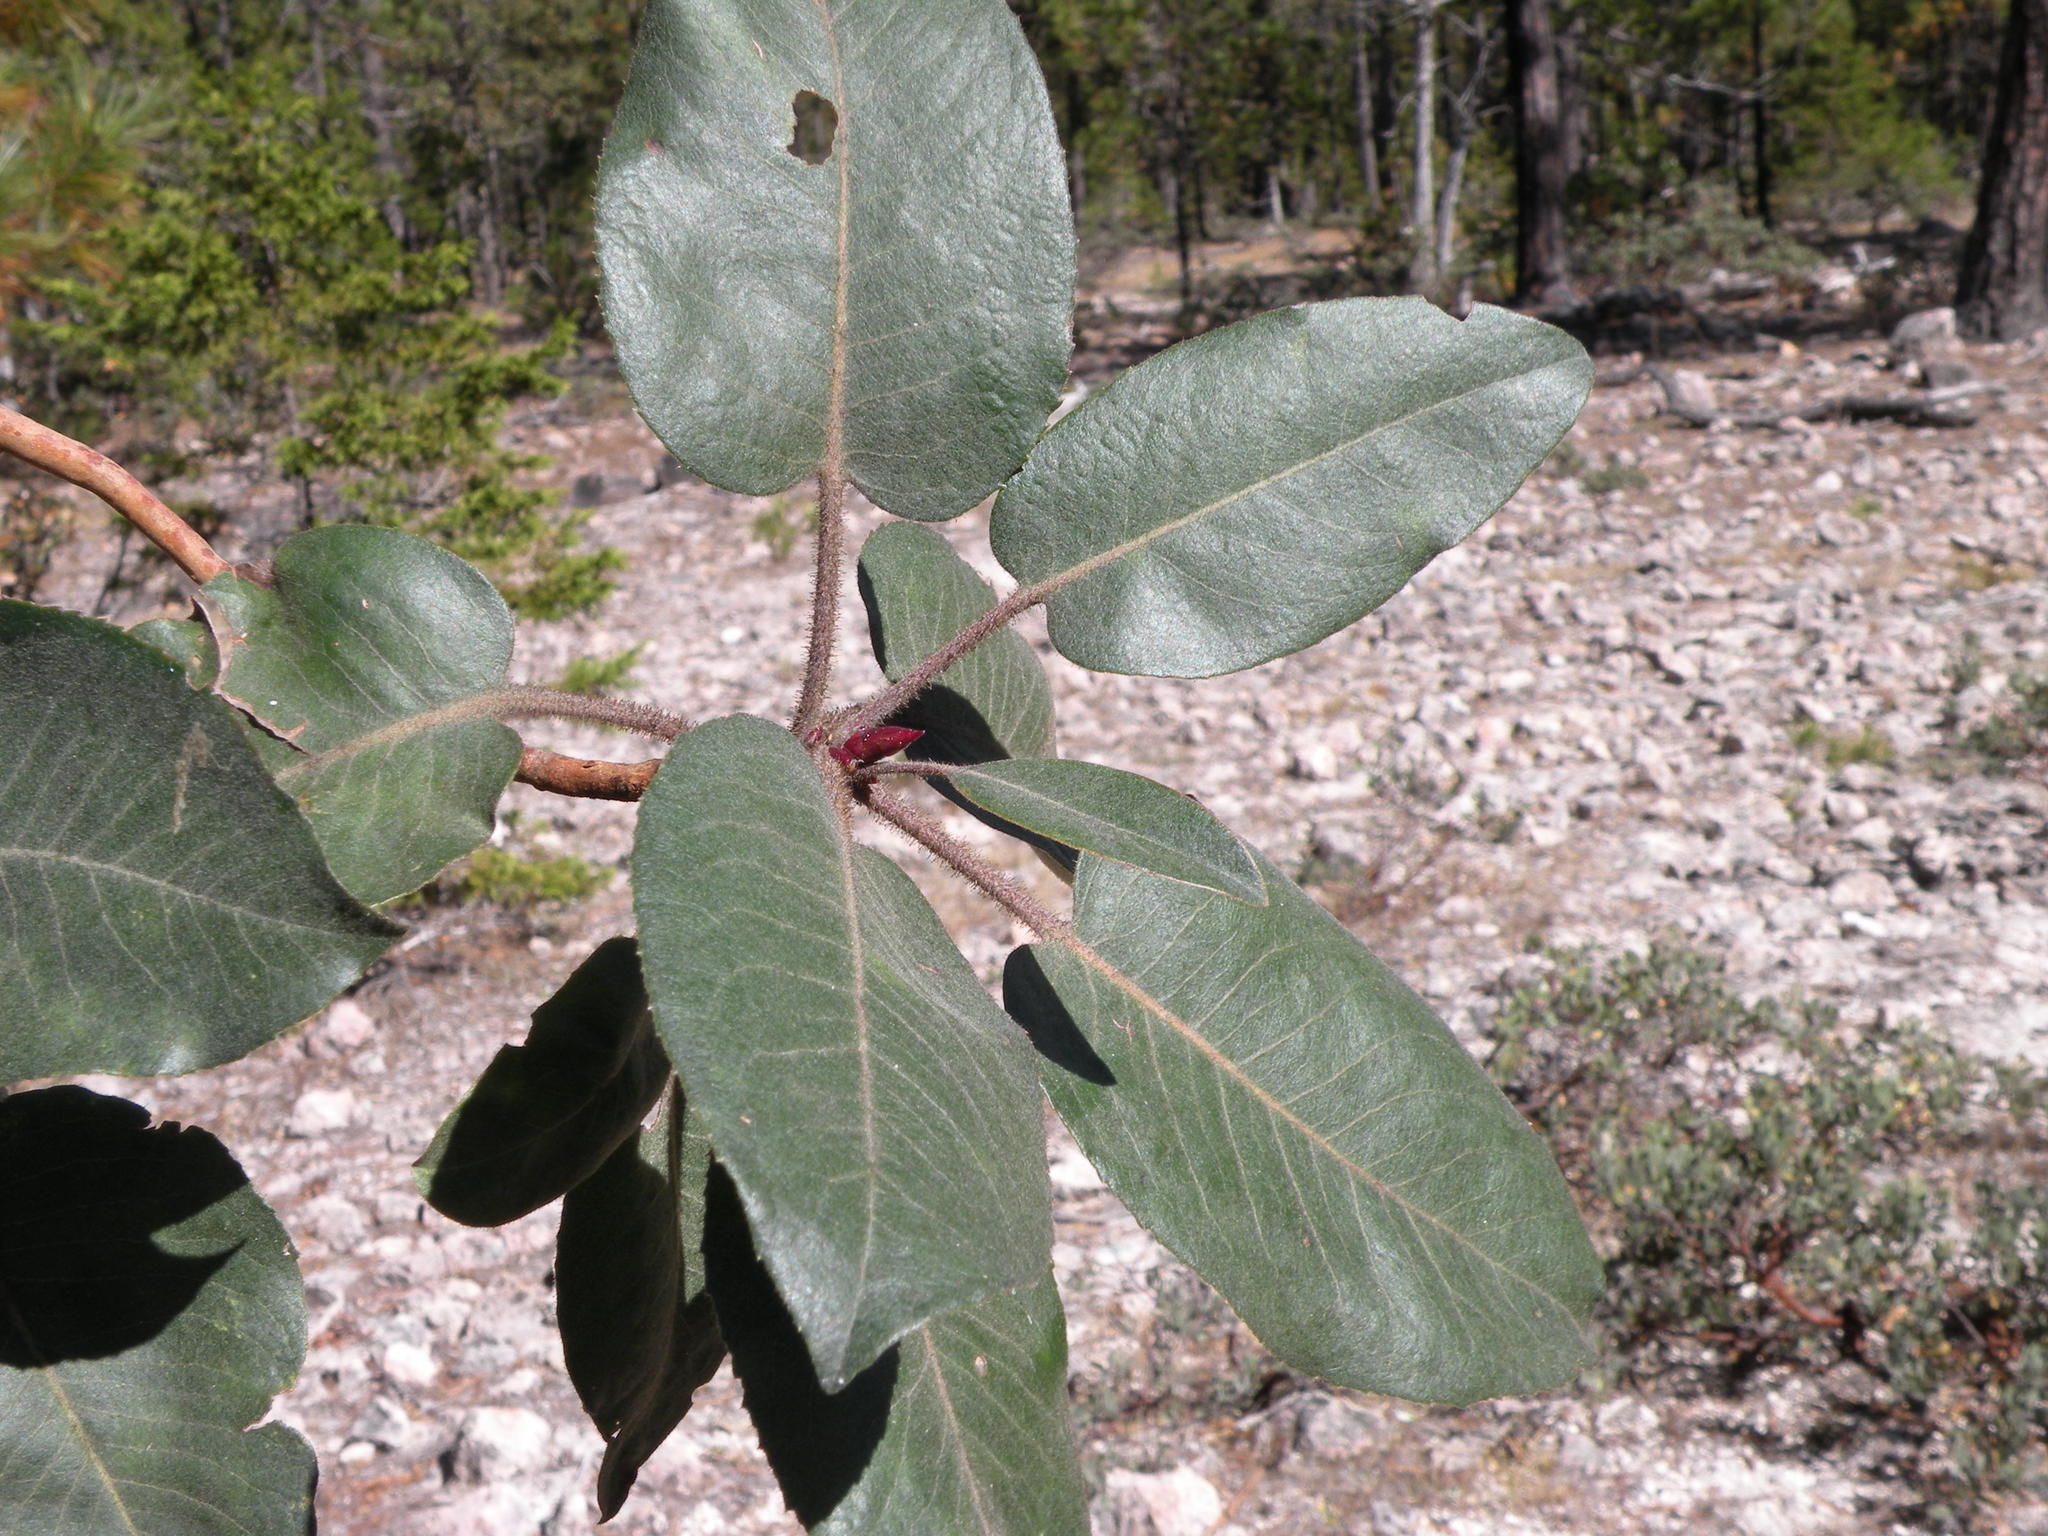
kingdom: Plantae
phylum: Tracheophyta
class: Magnoliopsida
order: Ericales
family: Ericaceae
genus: Arbutus
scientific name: Arbutus bicolor
